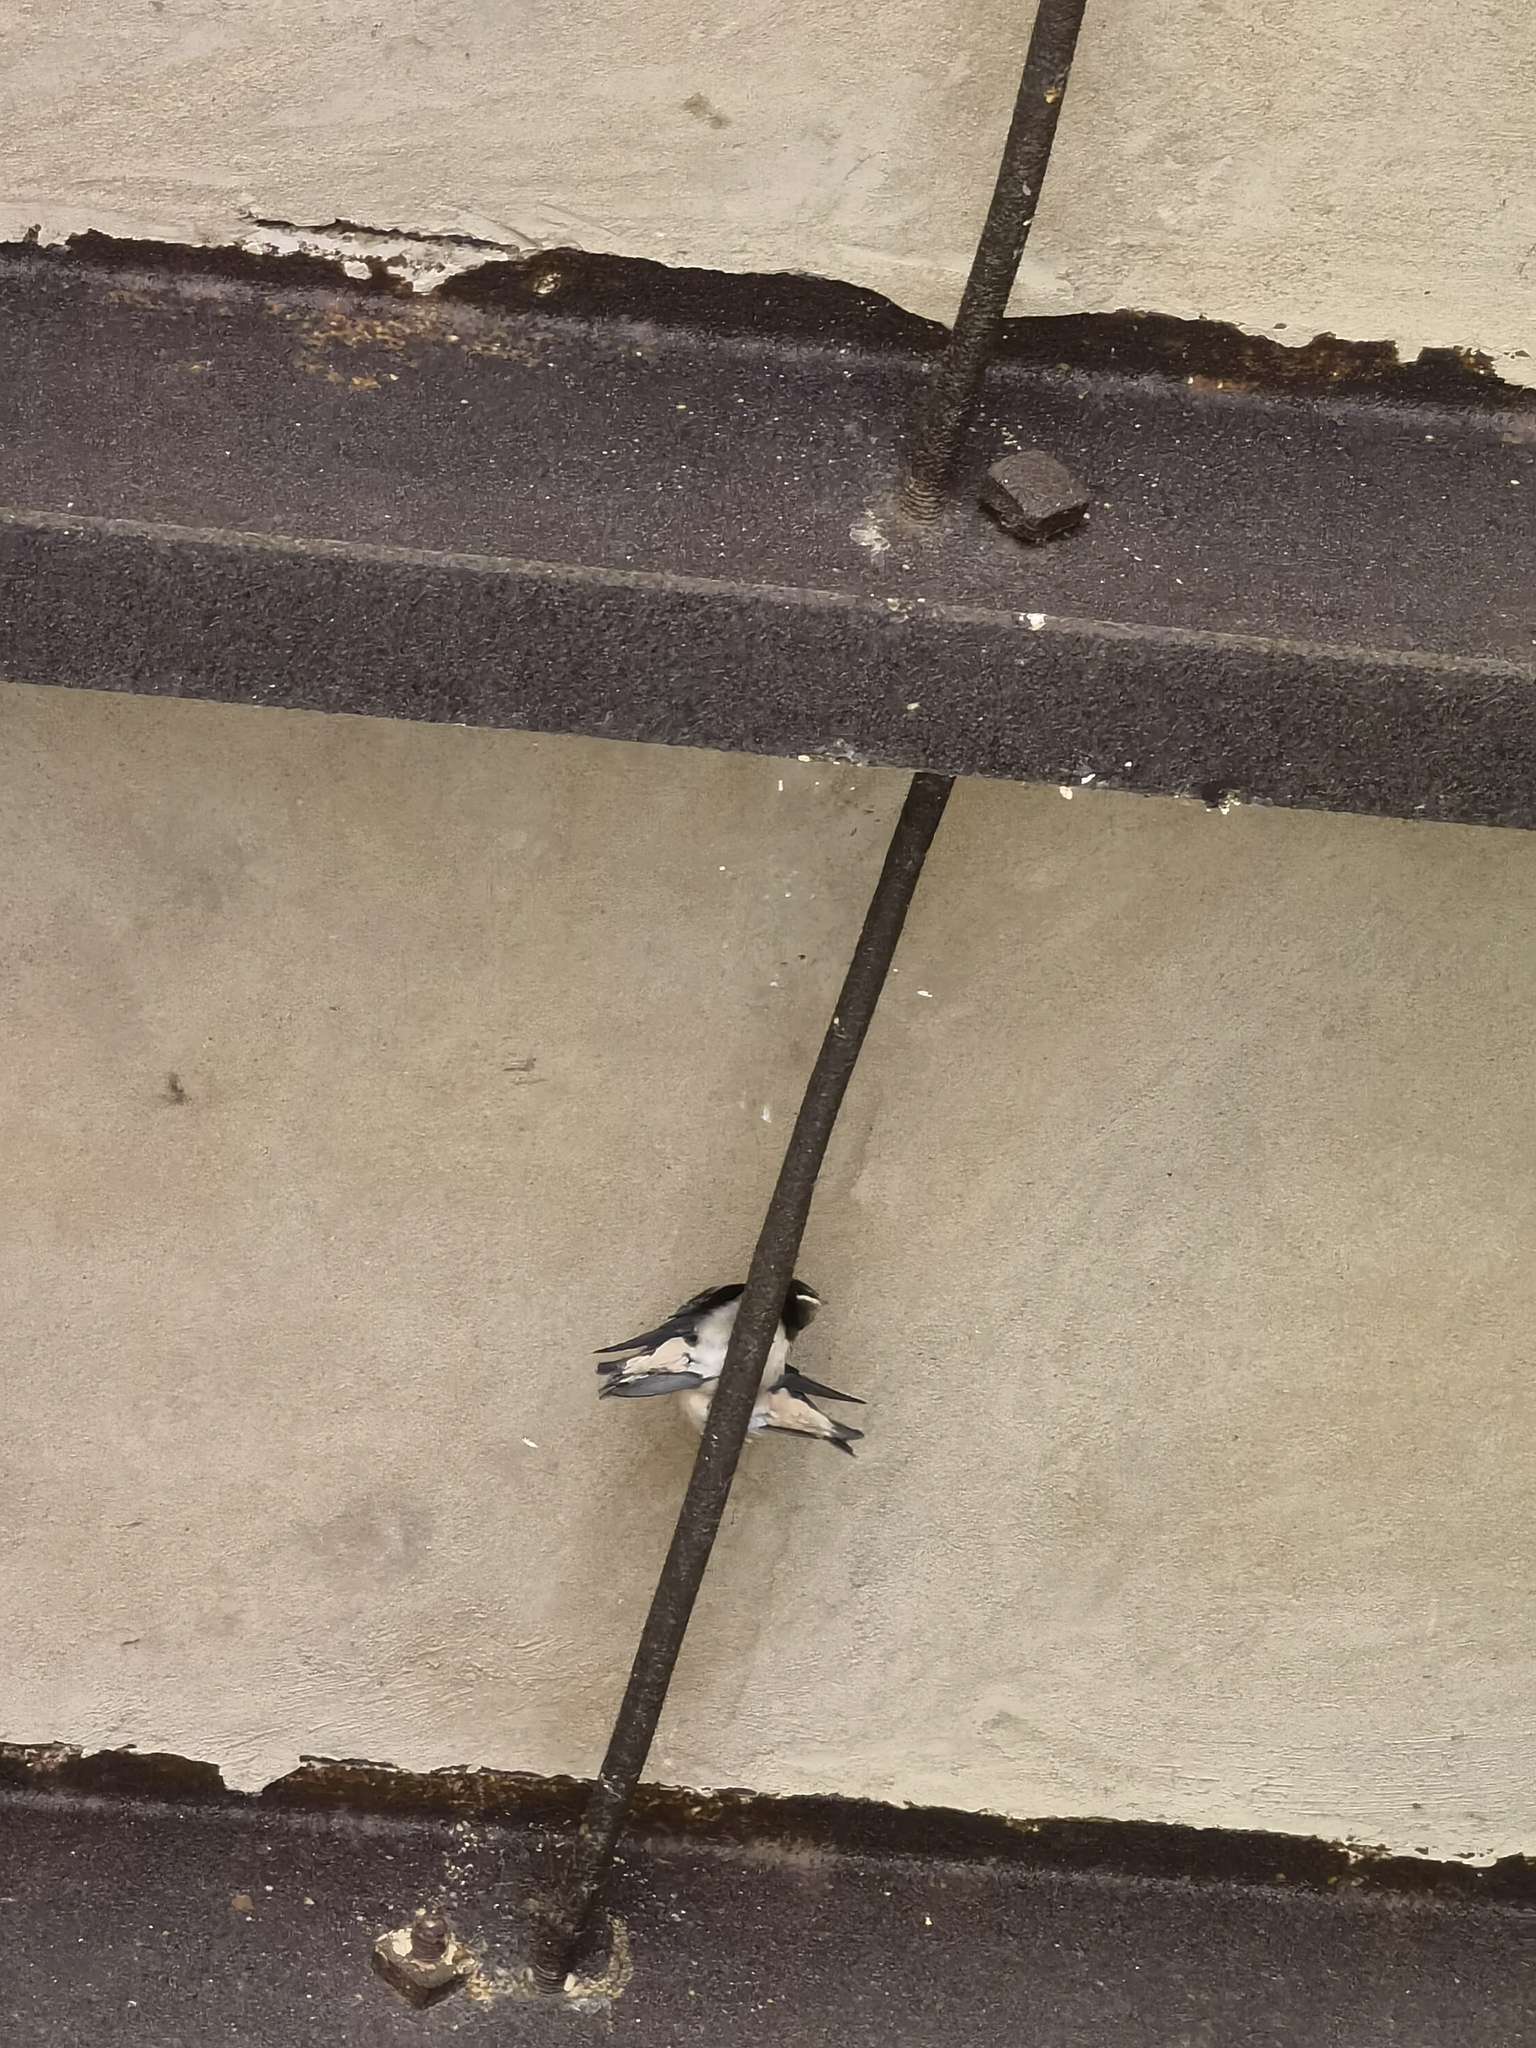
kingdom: Animalia
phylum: Chordata
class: Aves
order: Passeriformes
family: Hirundinidae
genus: Hirundo
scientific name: Hirundo rustica
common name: Barn swallow
